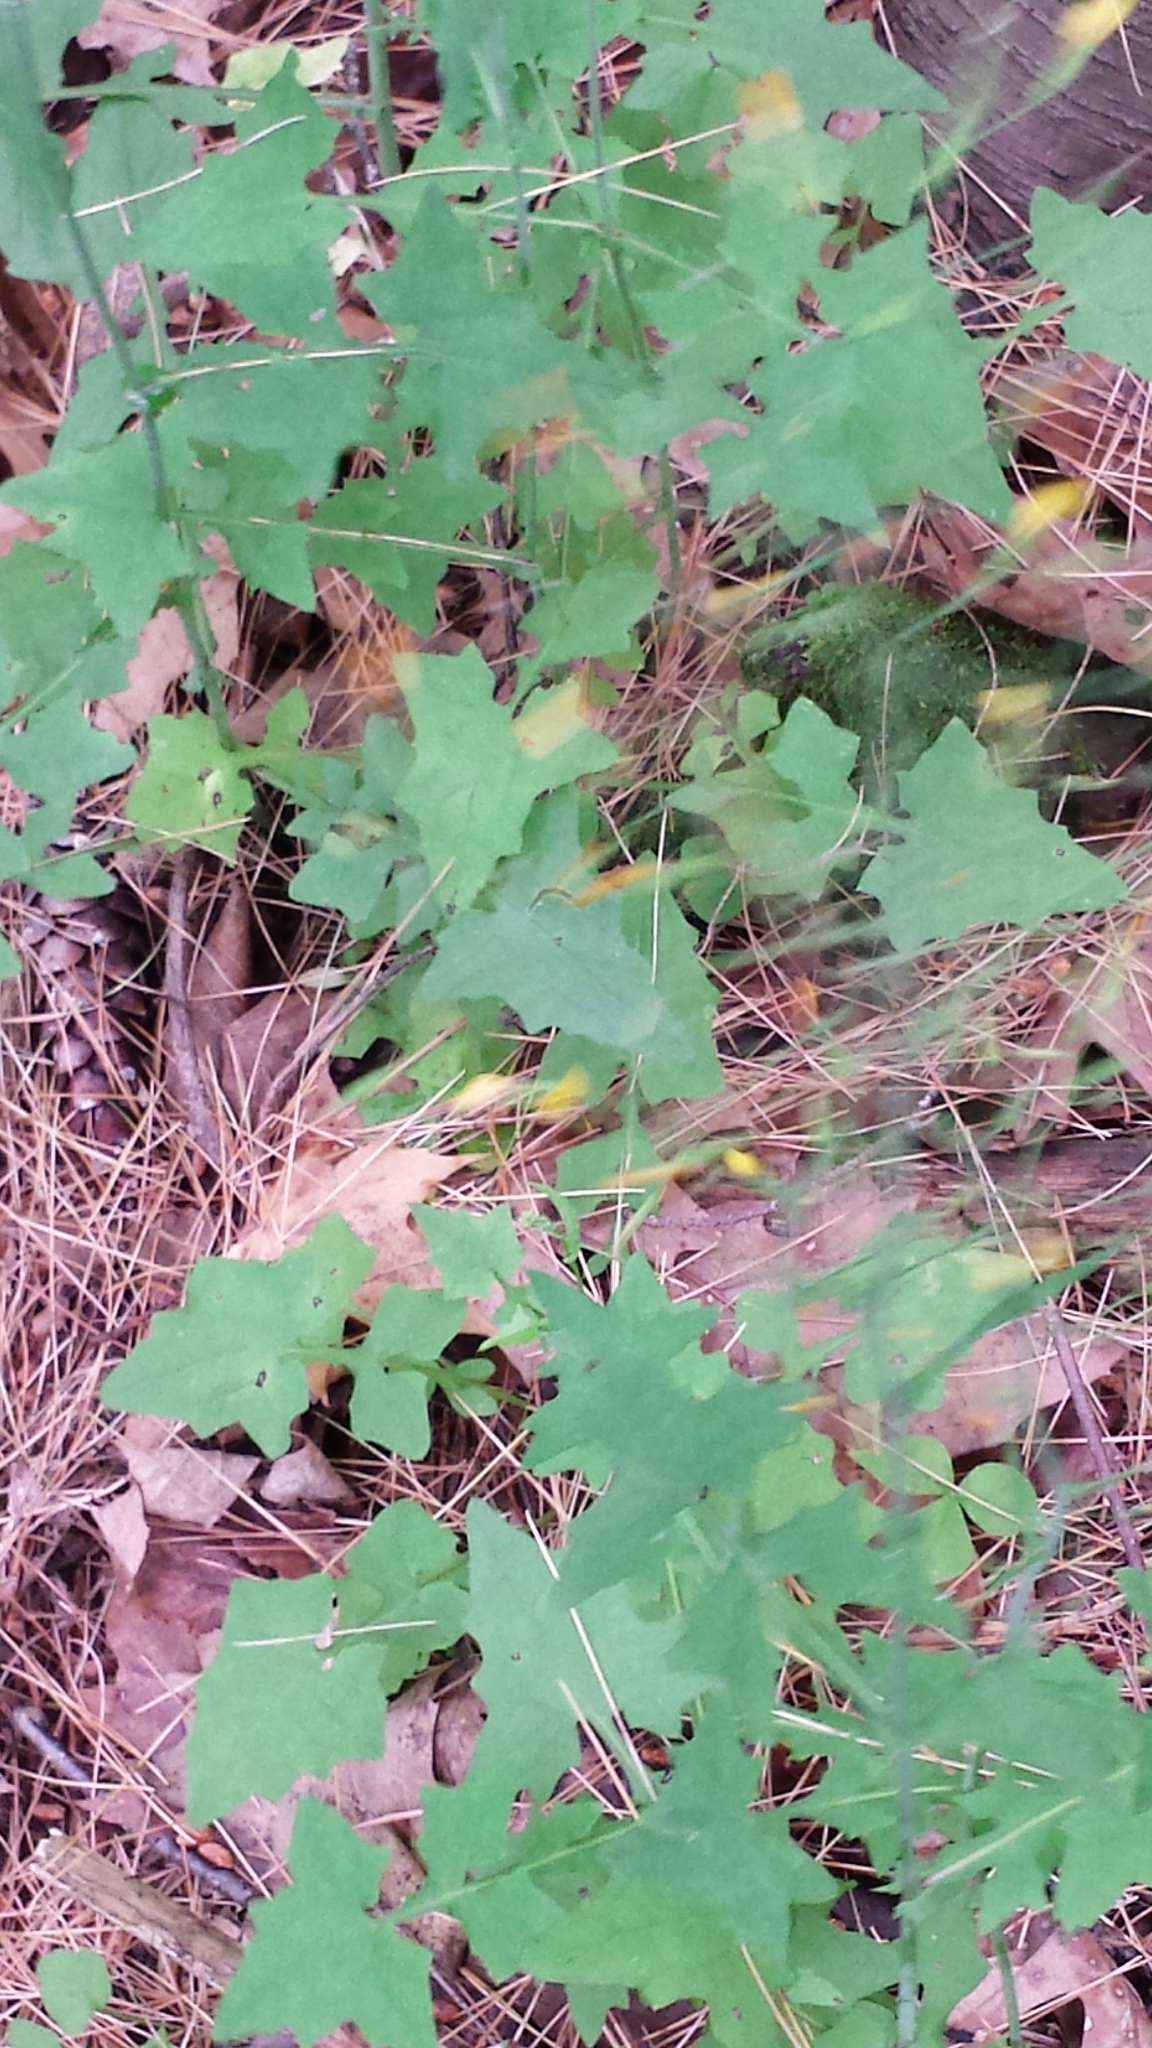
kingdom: Plantae
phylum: Tracheophyta
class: Magnoliopsida
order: Asterales
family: Asteraceae
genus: Mycelis
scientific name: Mycelis muralis
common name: Wall lettuce
